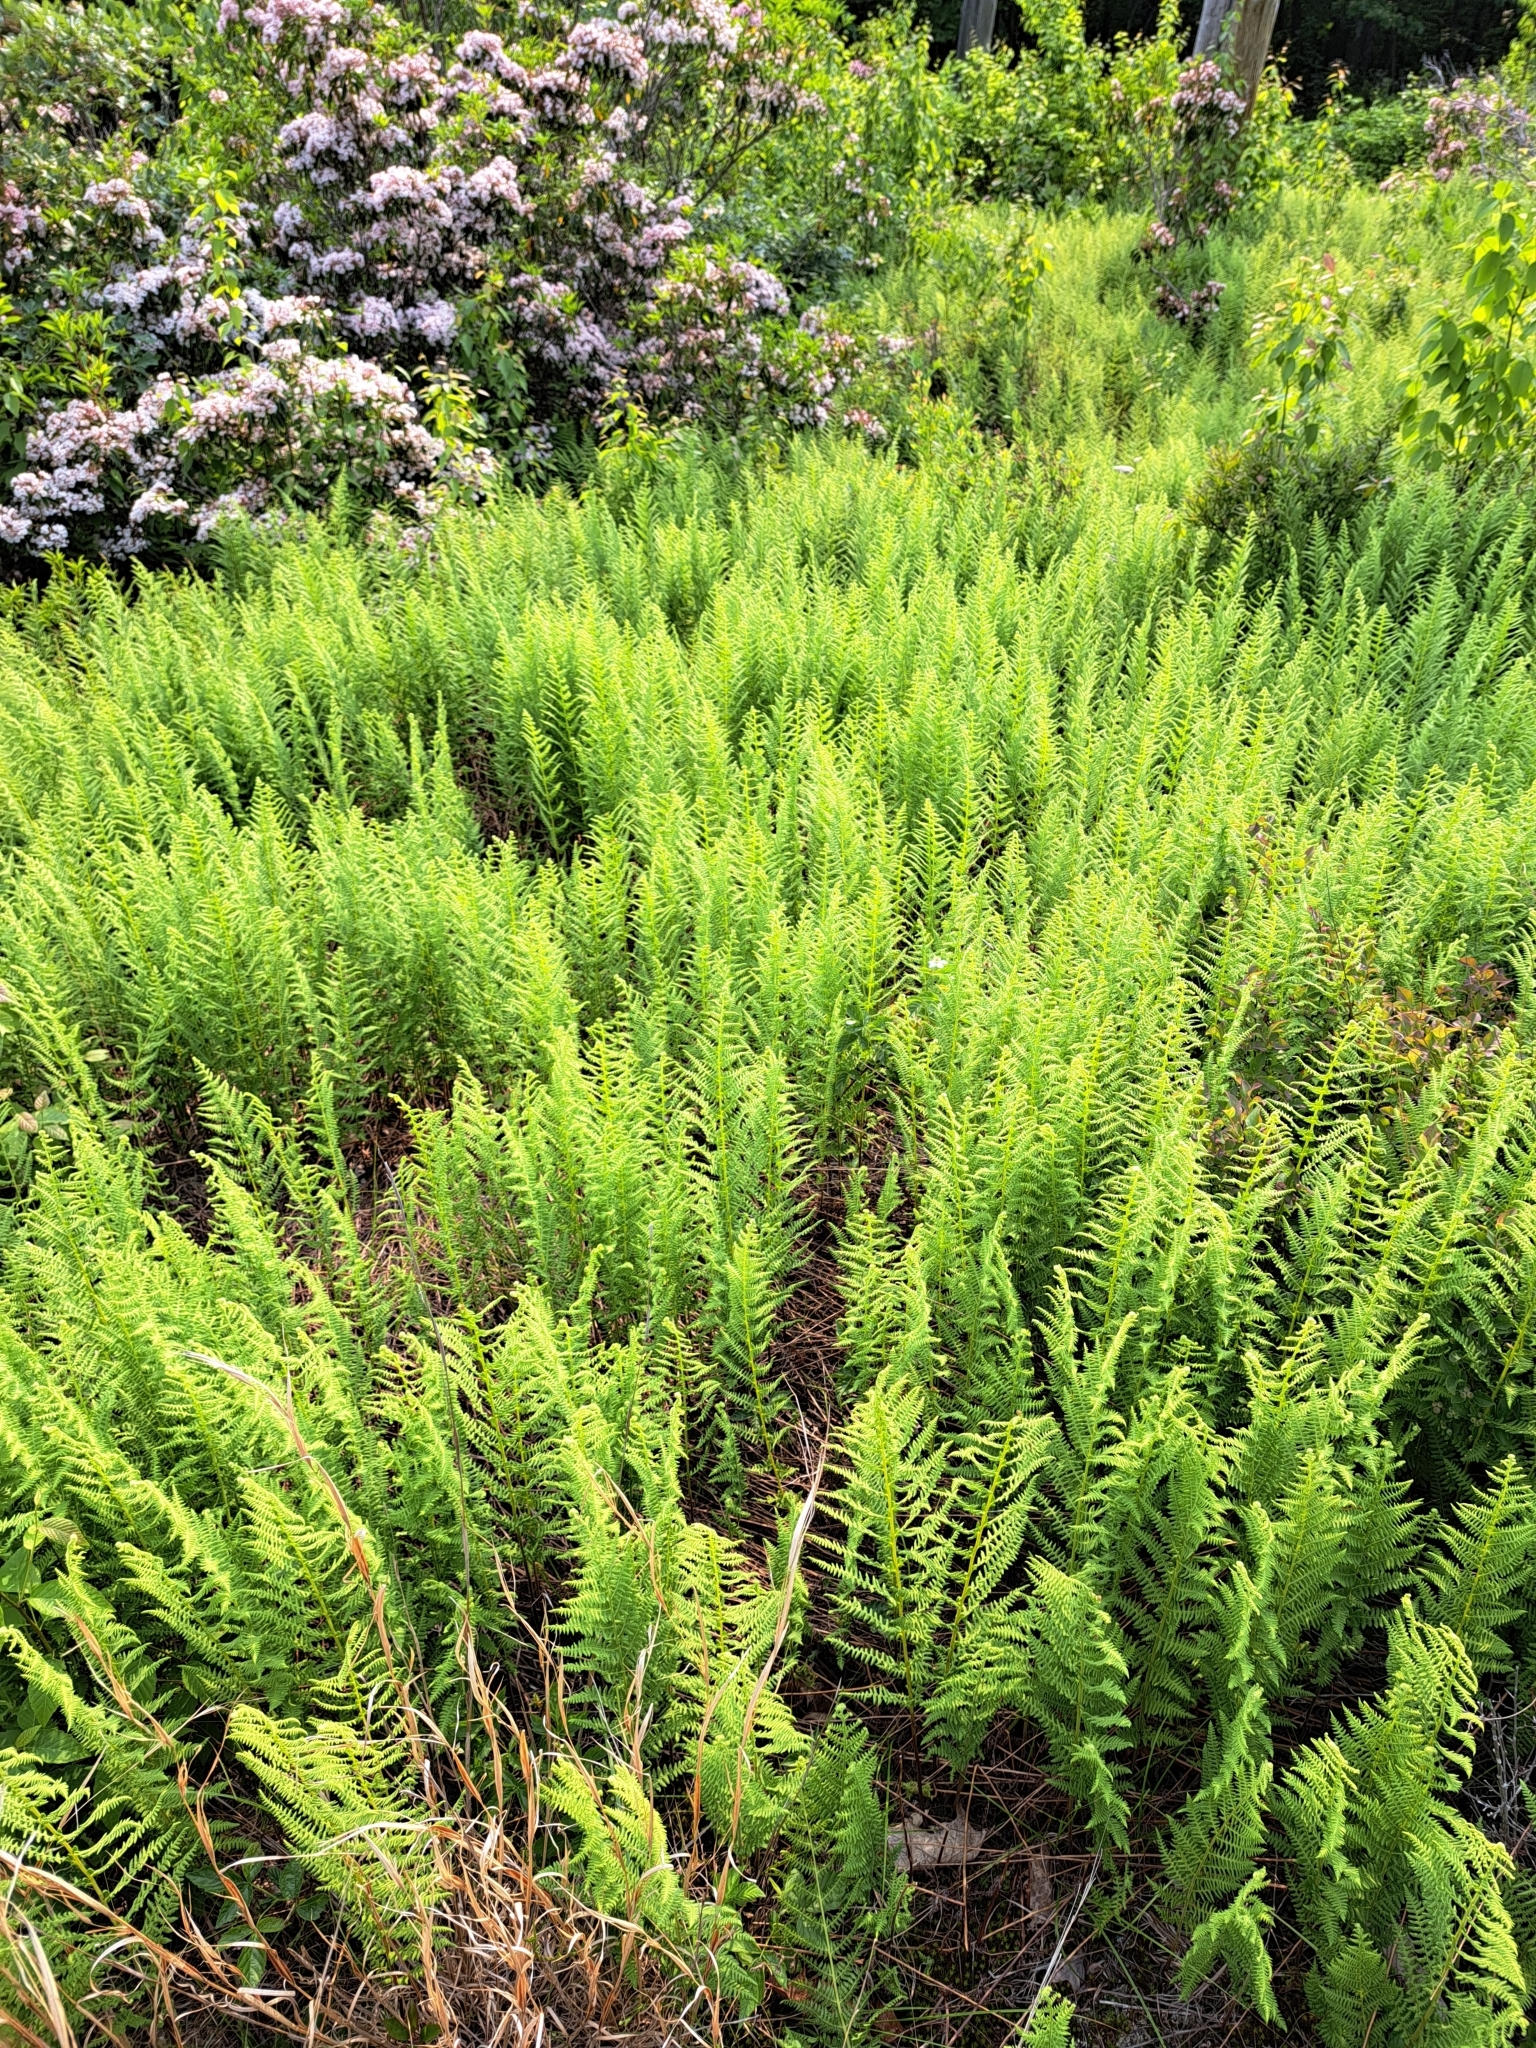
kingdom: Plantae
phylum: Tracheophyta
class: Polypodiopsida
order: Polypodiales
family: Dennstaedtiaceae
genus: Sitobolium
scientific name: Sitobolium punctilobum
